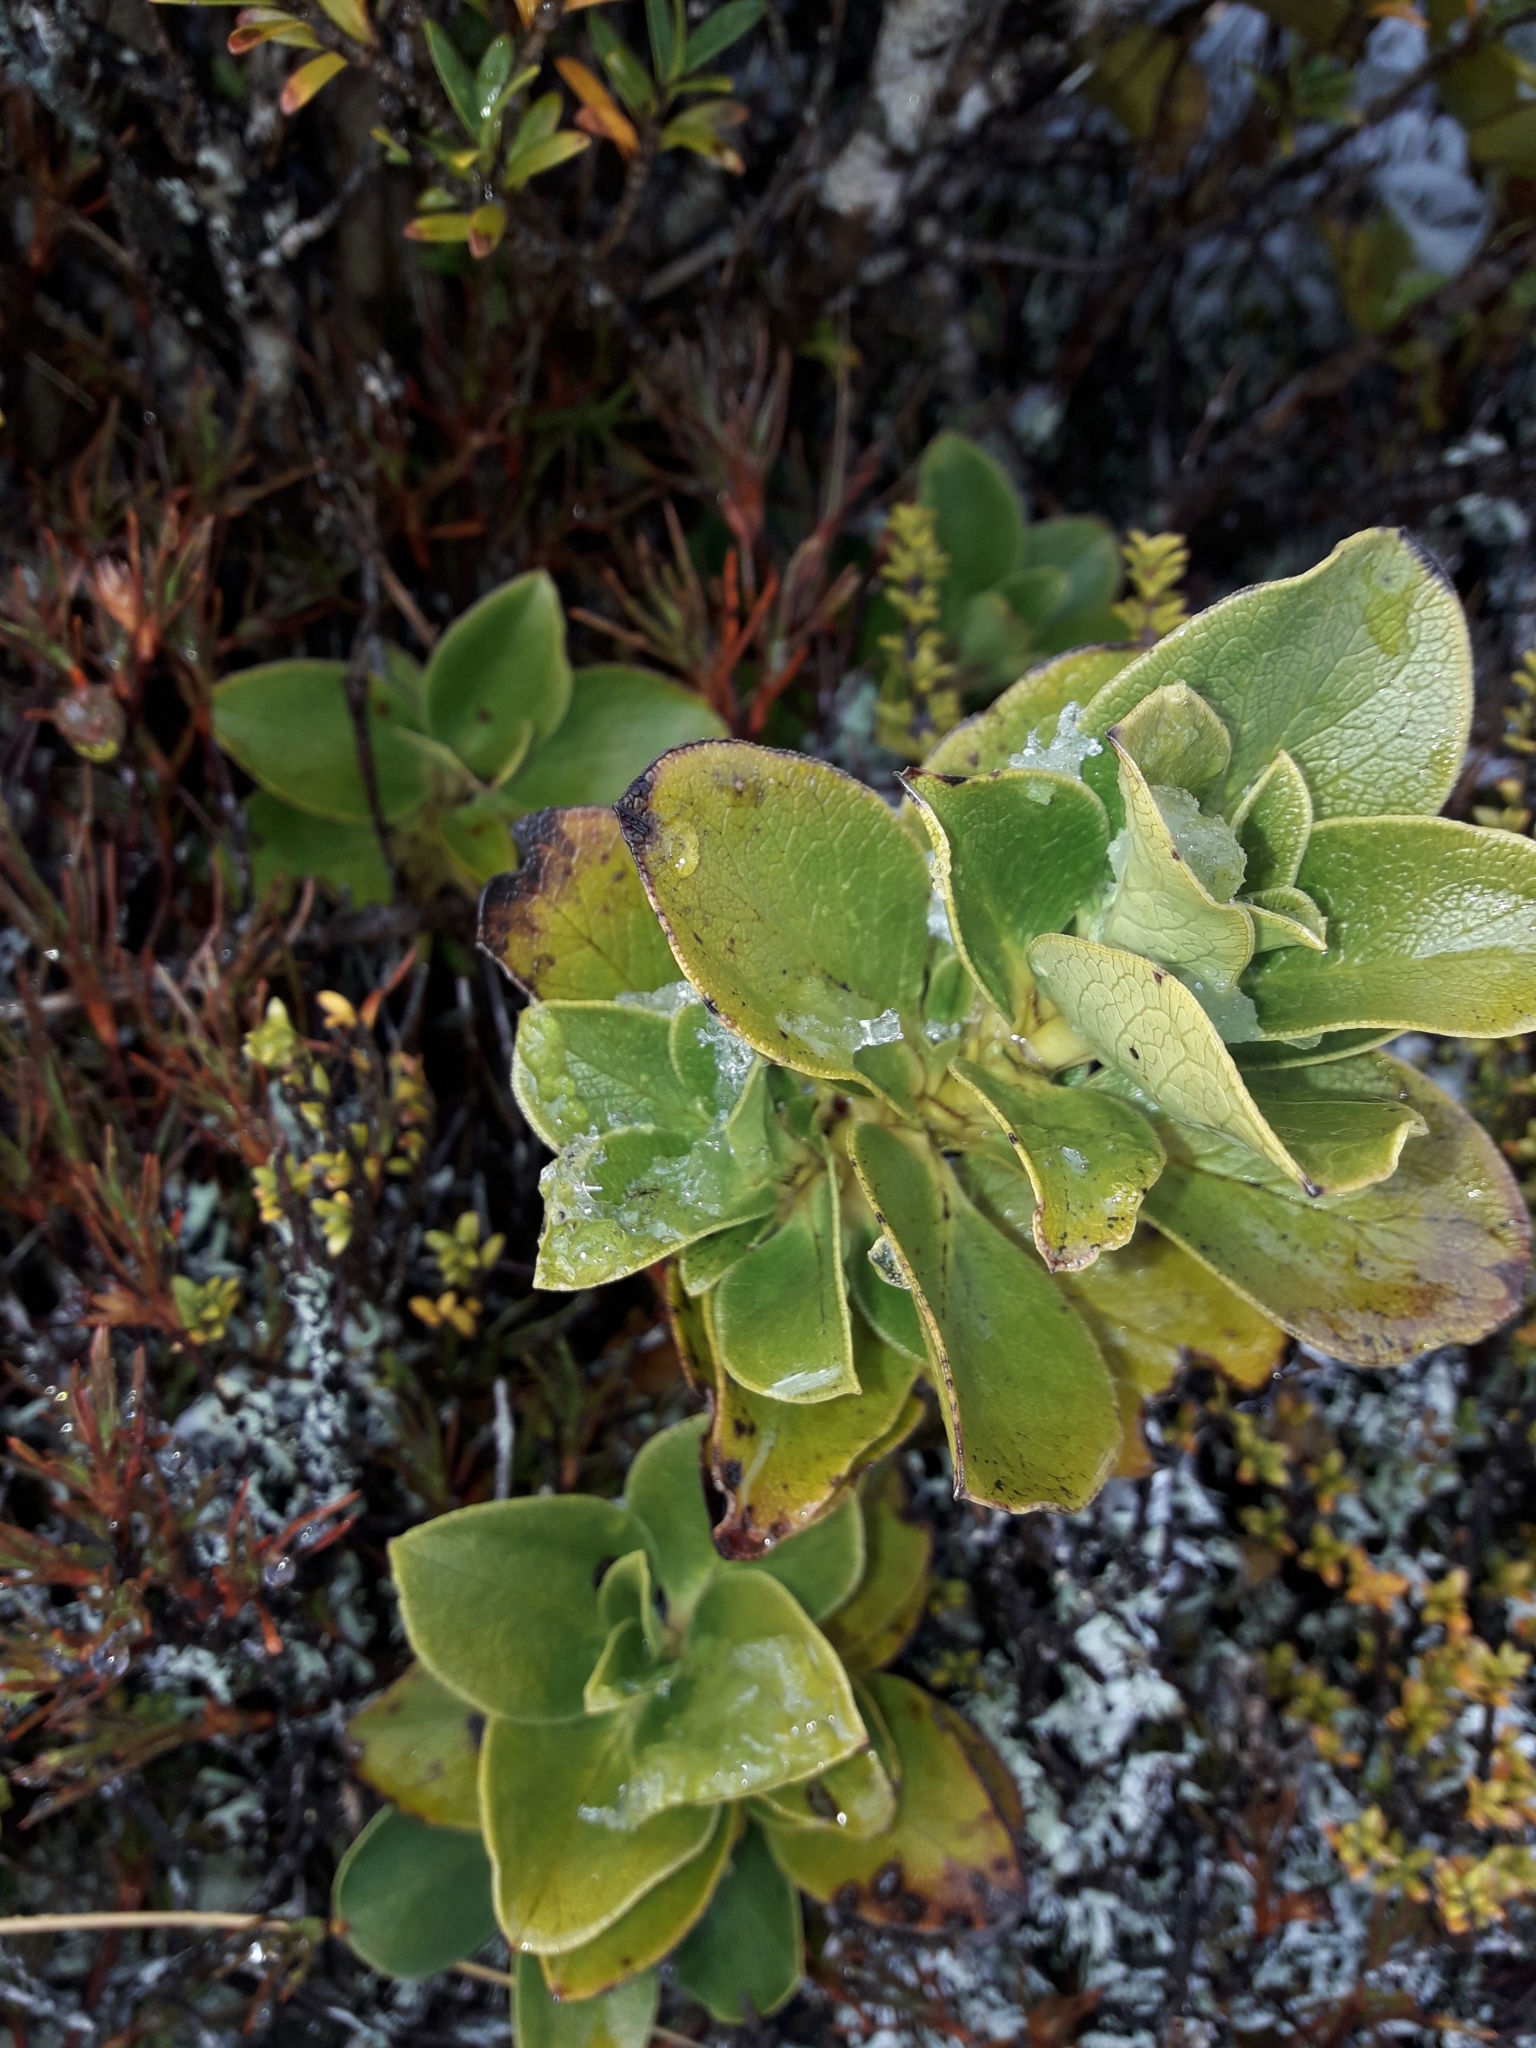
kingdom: Plantae
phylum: Tracheophyta
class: Magnoliopsida
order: Gentianales
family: Rubiaceae
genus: Coprosma
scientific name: Coprosma serrulata
